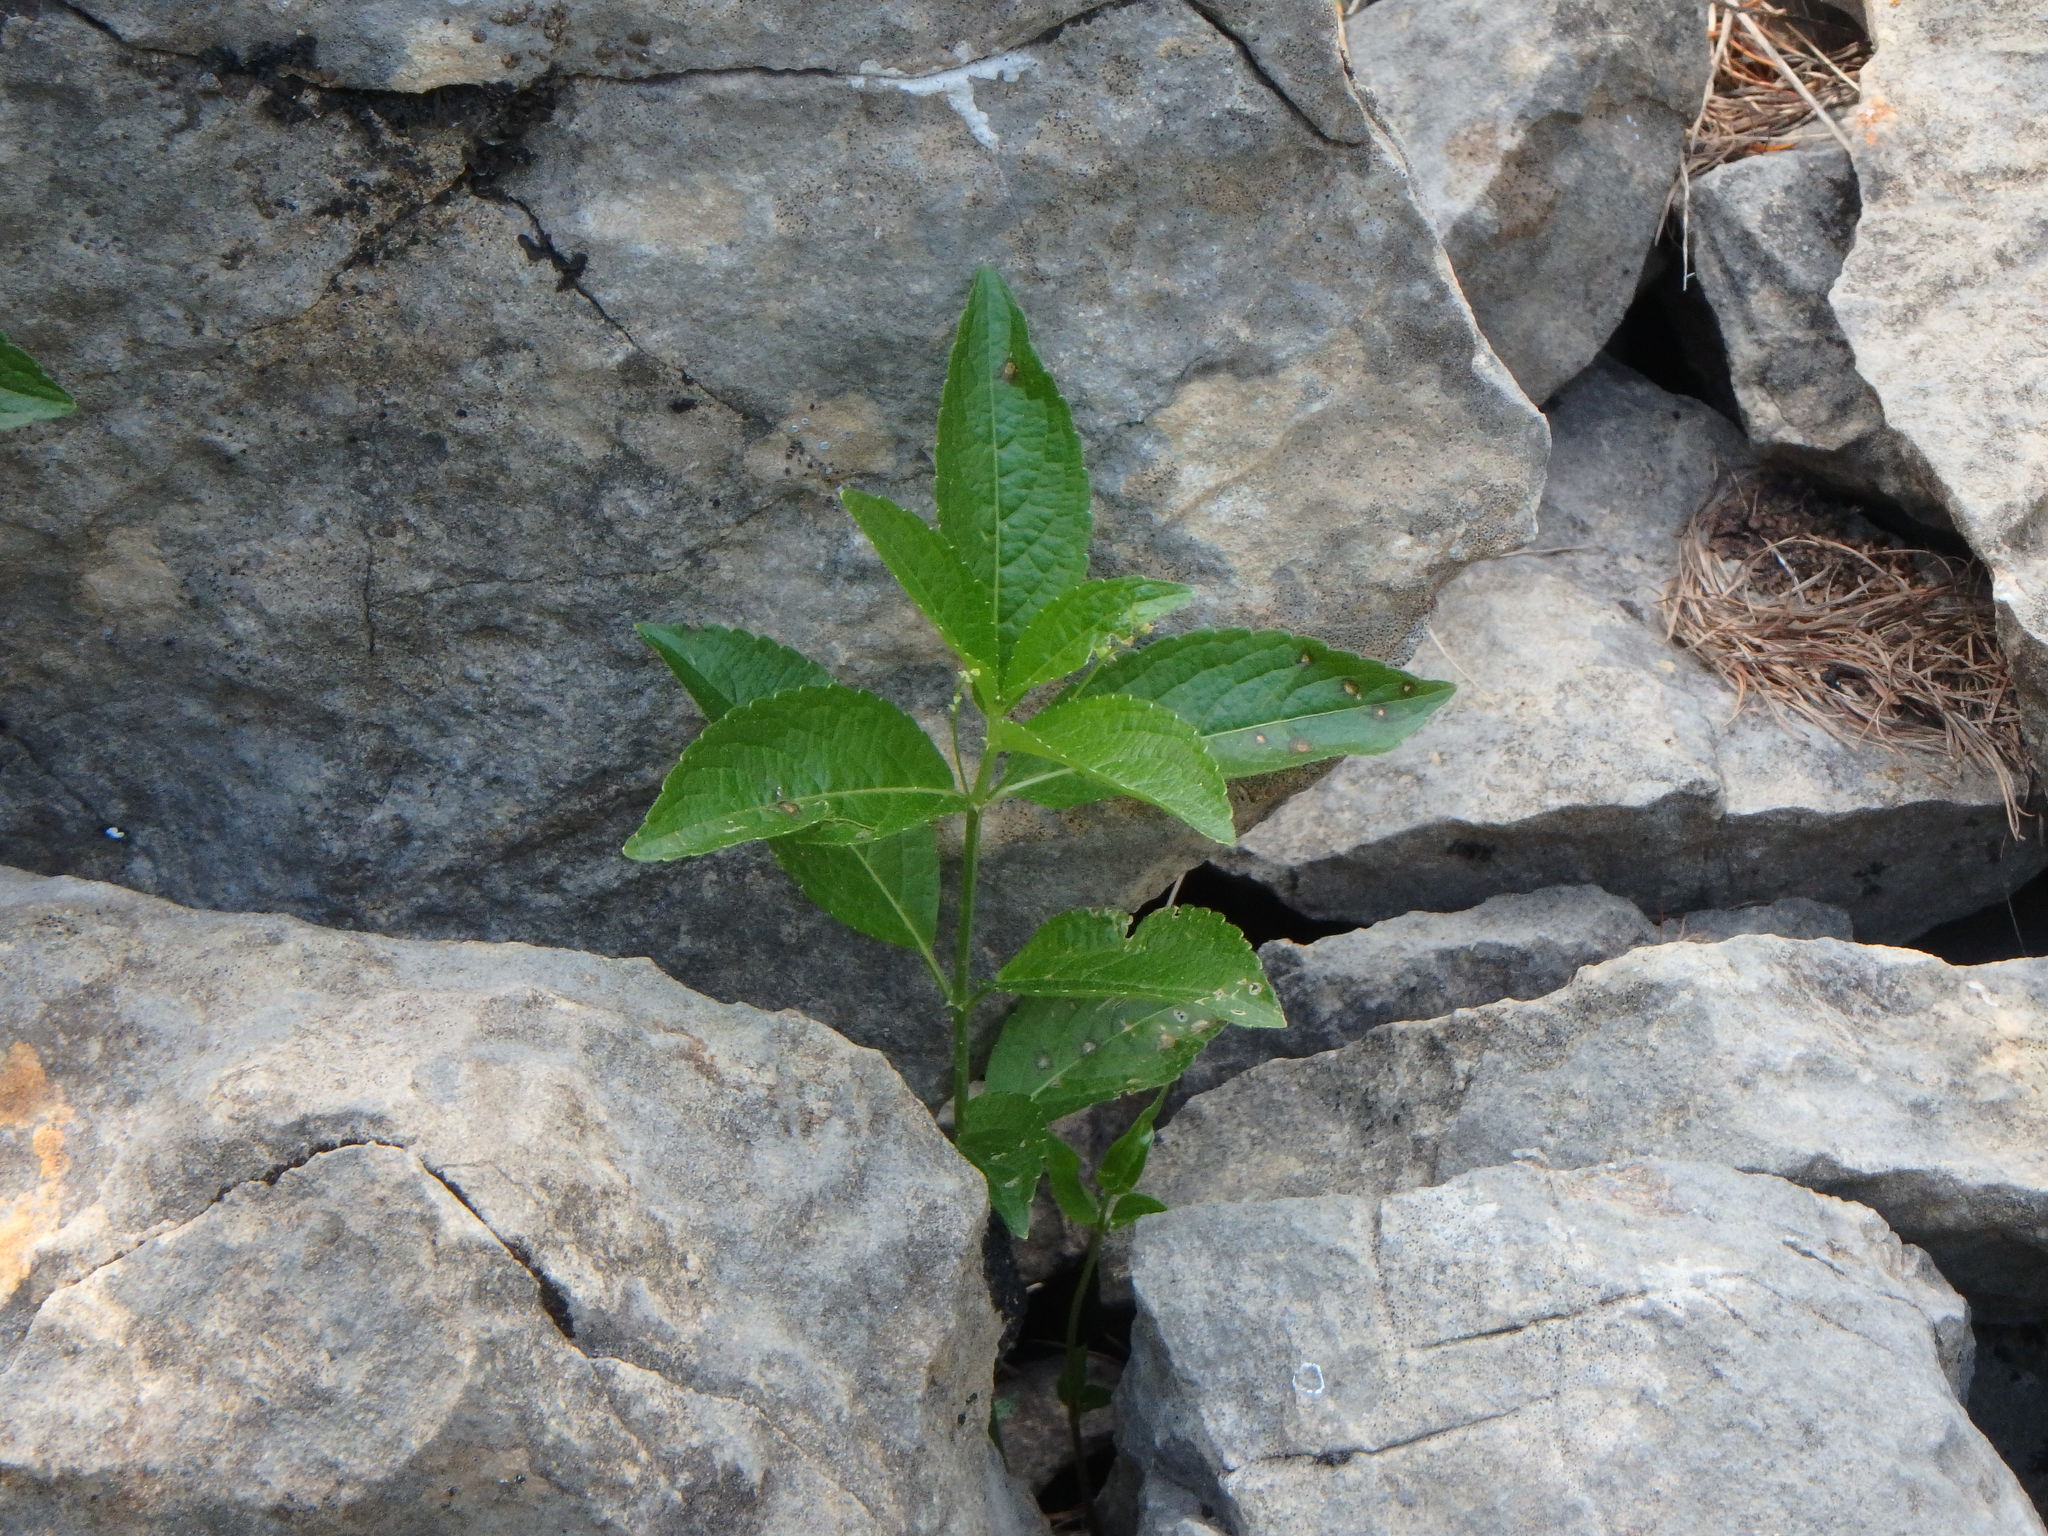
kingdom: Plantae
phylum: Tracheophyta
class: Magnoliopsida
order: Malpighiales
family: Euphorbiaceae
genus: Mercurialis
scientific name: Mercurialis perennis
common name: Dog mercury
